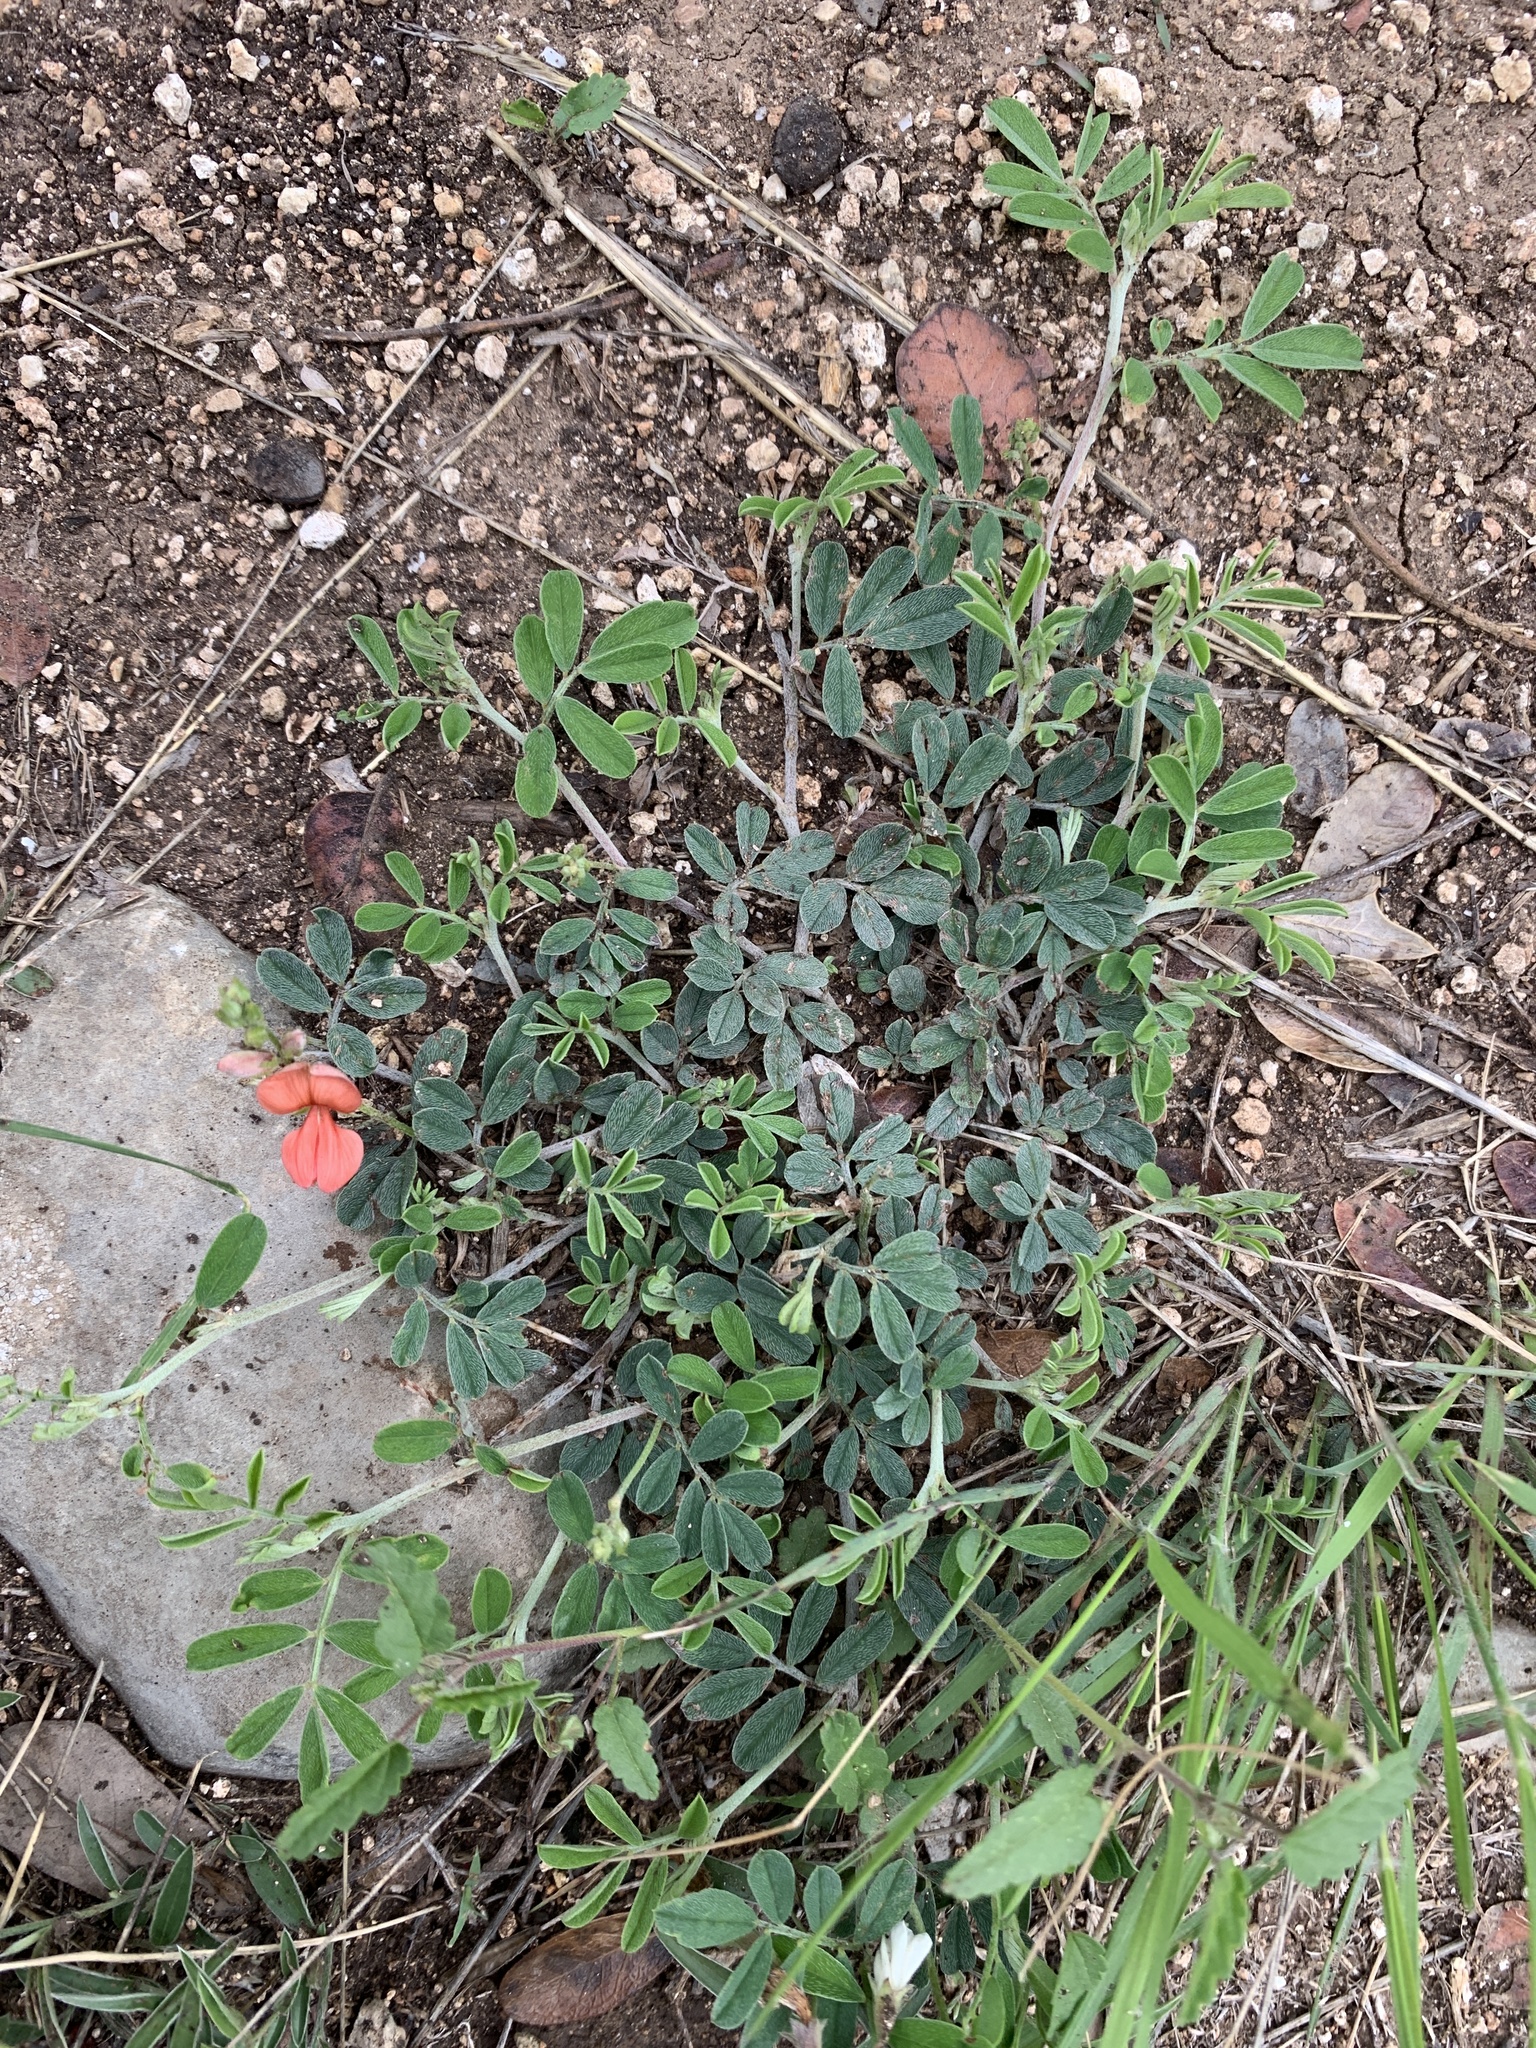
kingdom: Plantae
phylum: Tracheophyta
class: Magnoliopsida
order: Fabales
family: Fabaceae
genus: Indigofera
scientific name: Indigofera miniata
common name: Coast indigo
